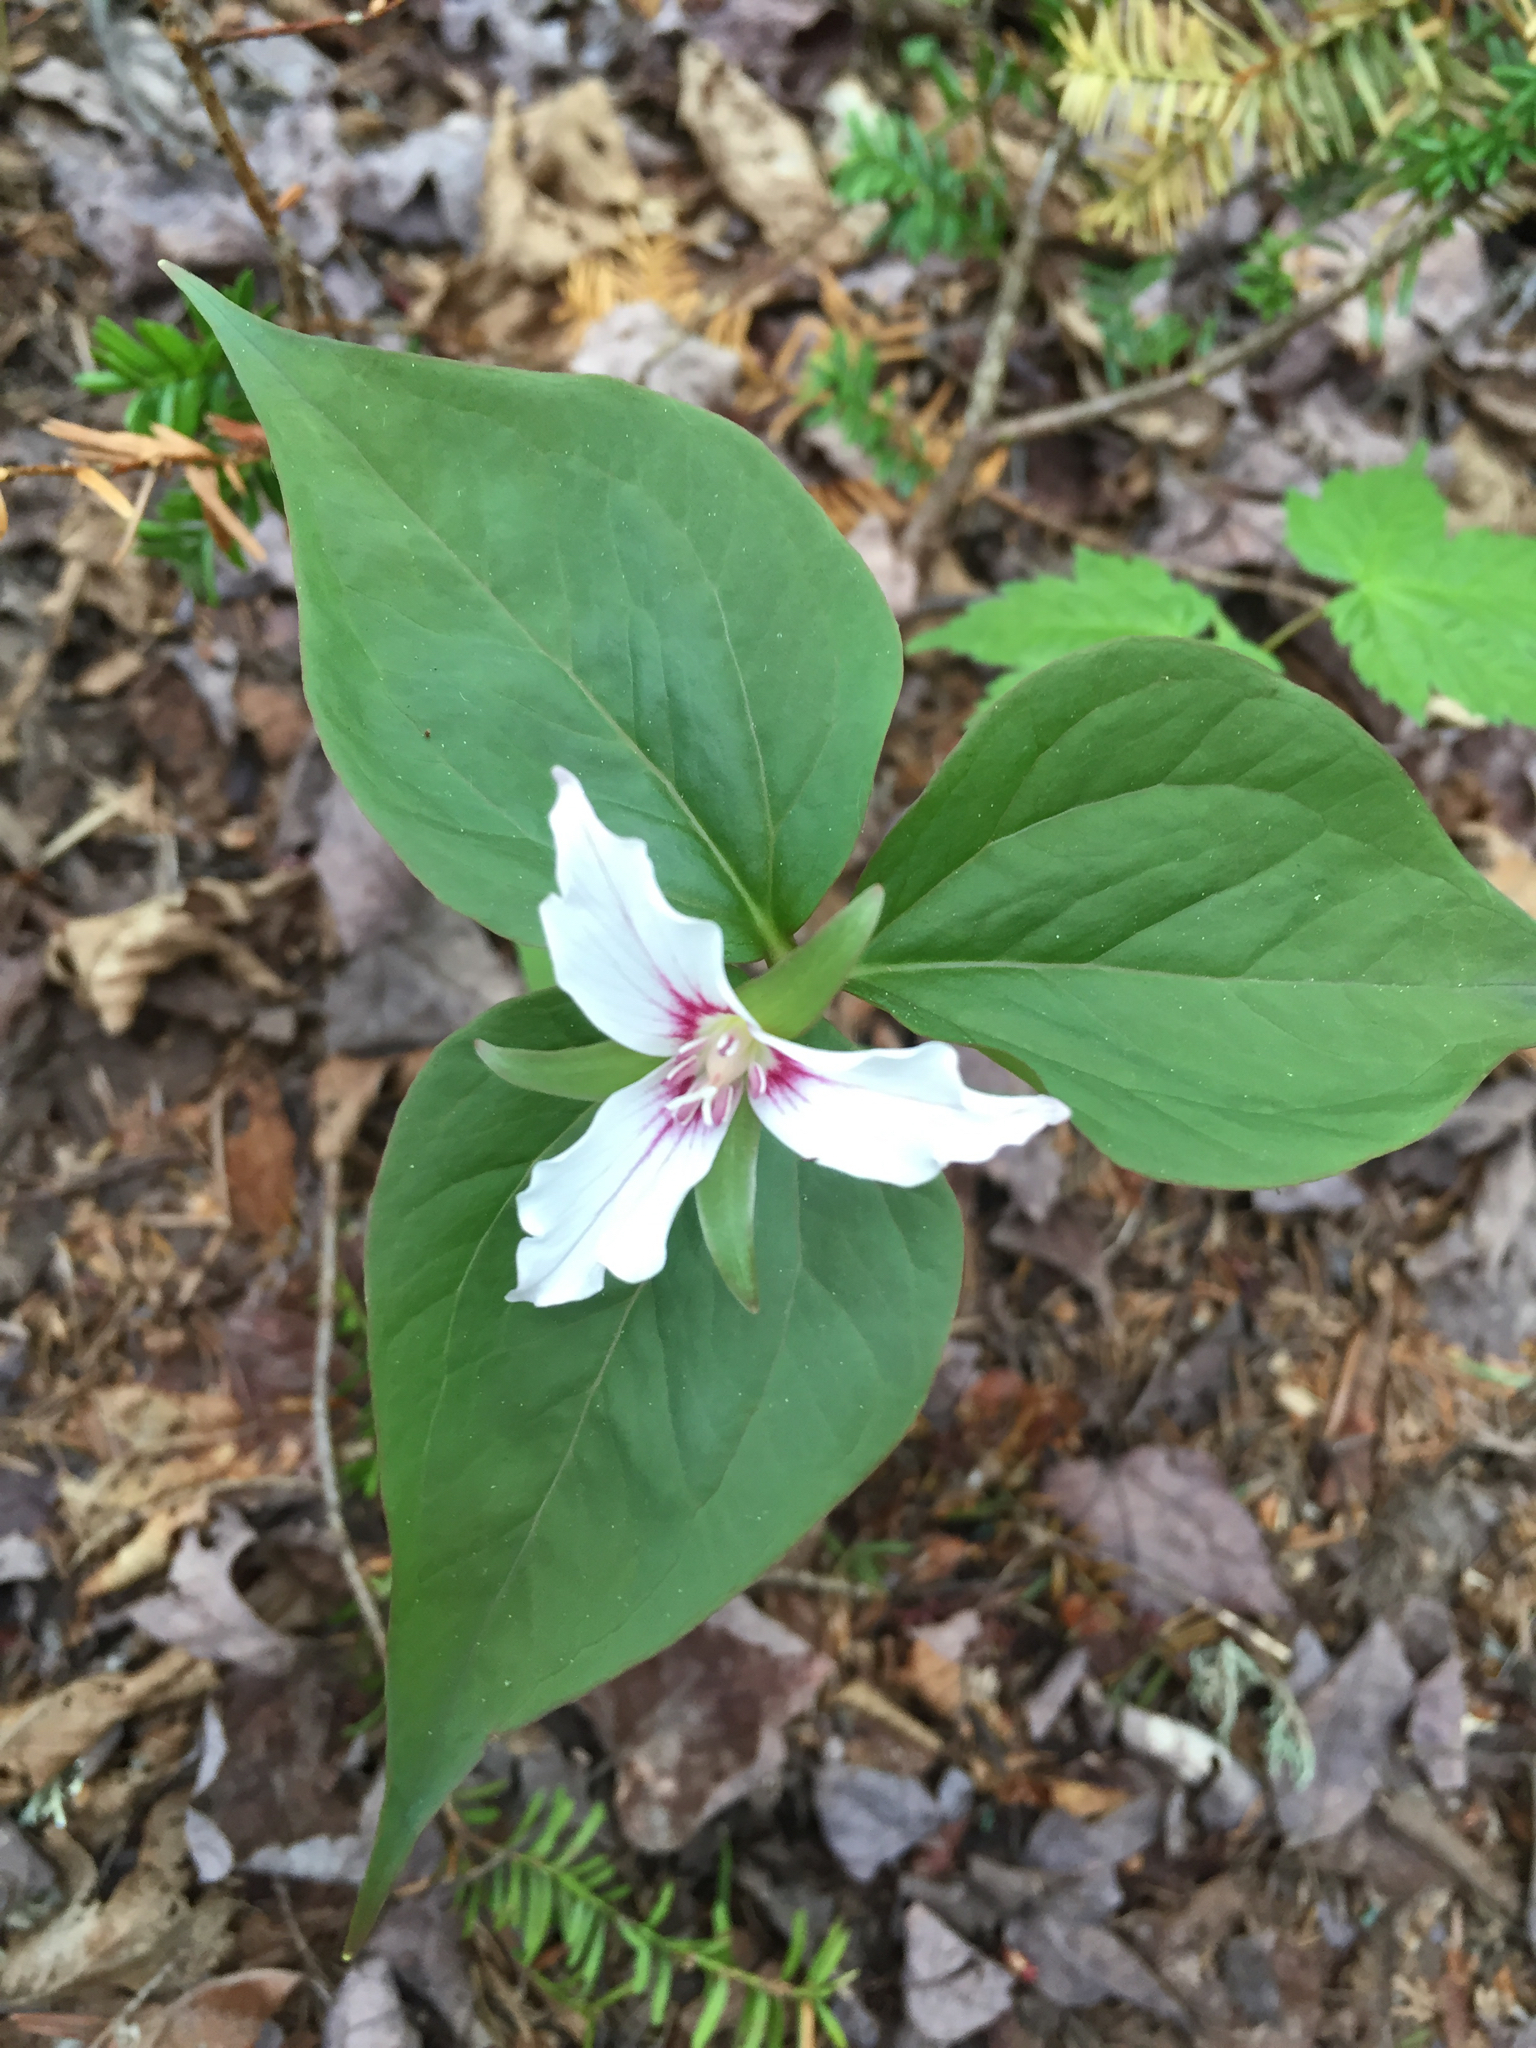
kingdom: Plantae
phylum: Tracheophyta
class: Liliopsida
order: Liliales
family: Melanthiaceae
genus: Trillium
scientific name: Trillium undulatum
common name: Paint trillium
